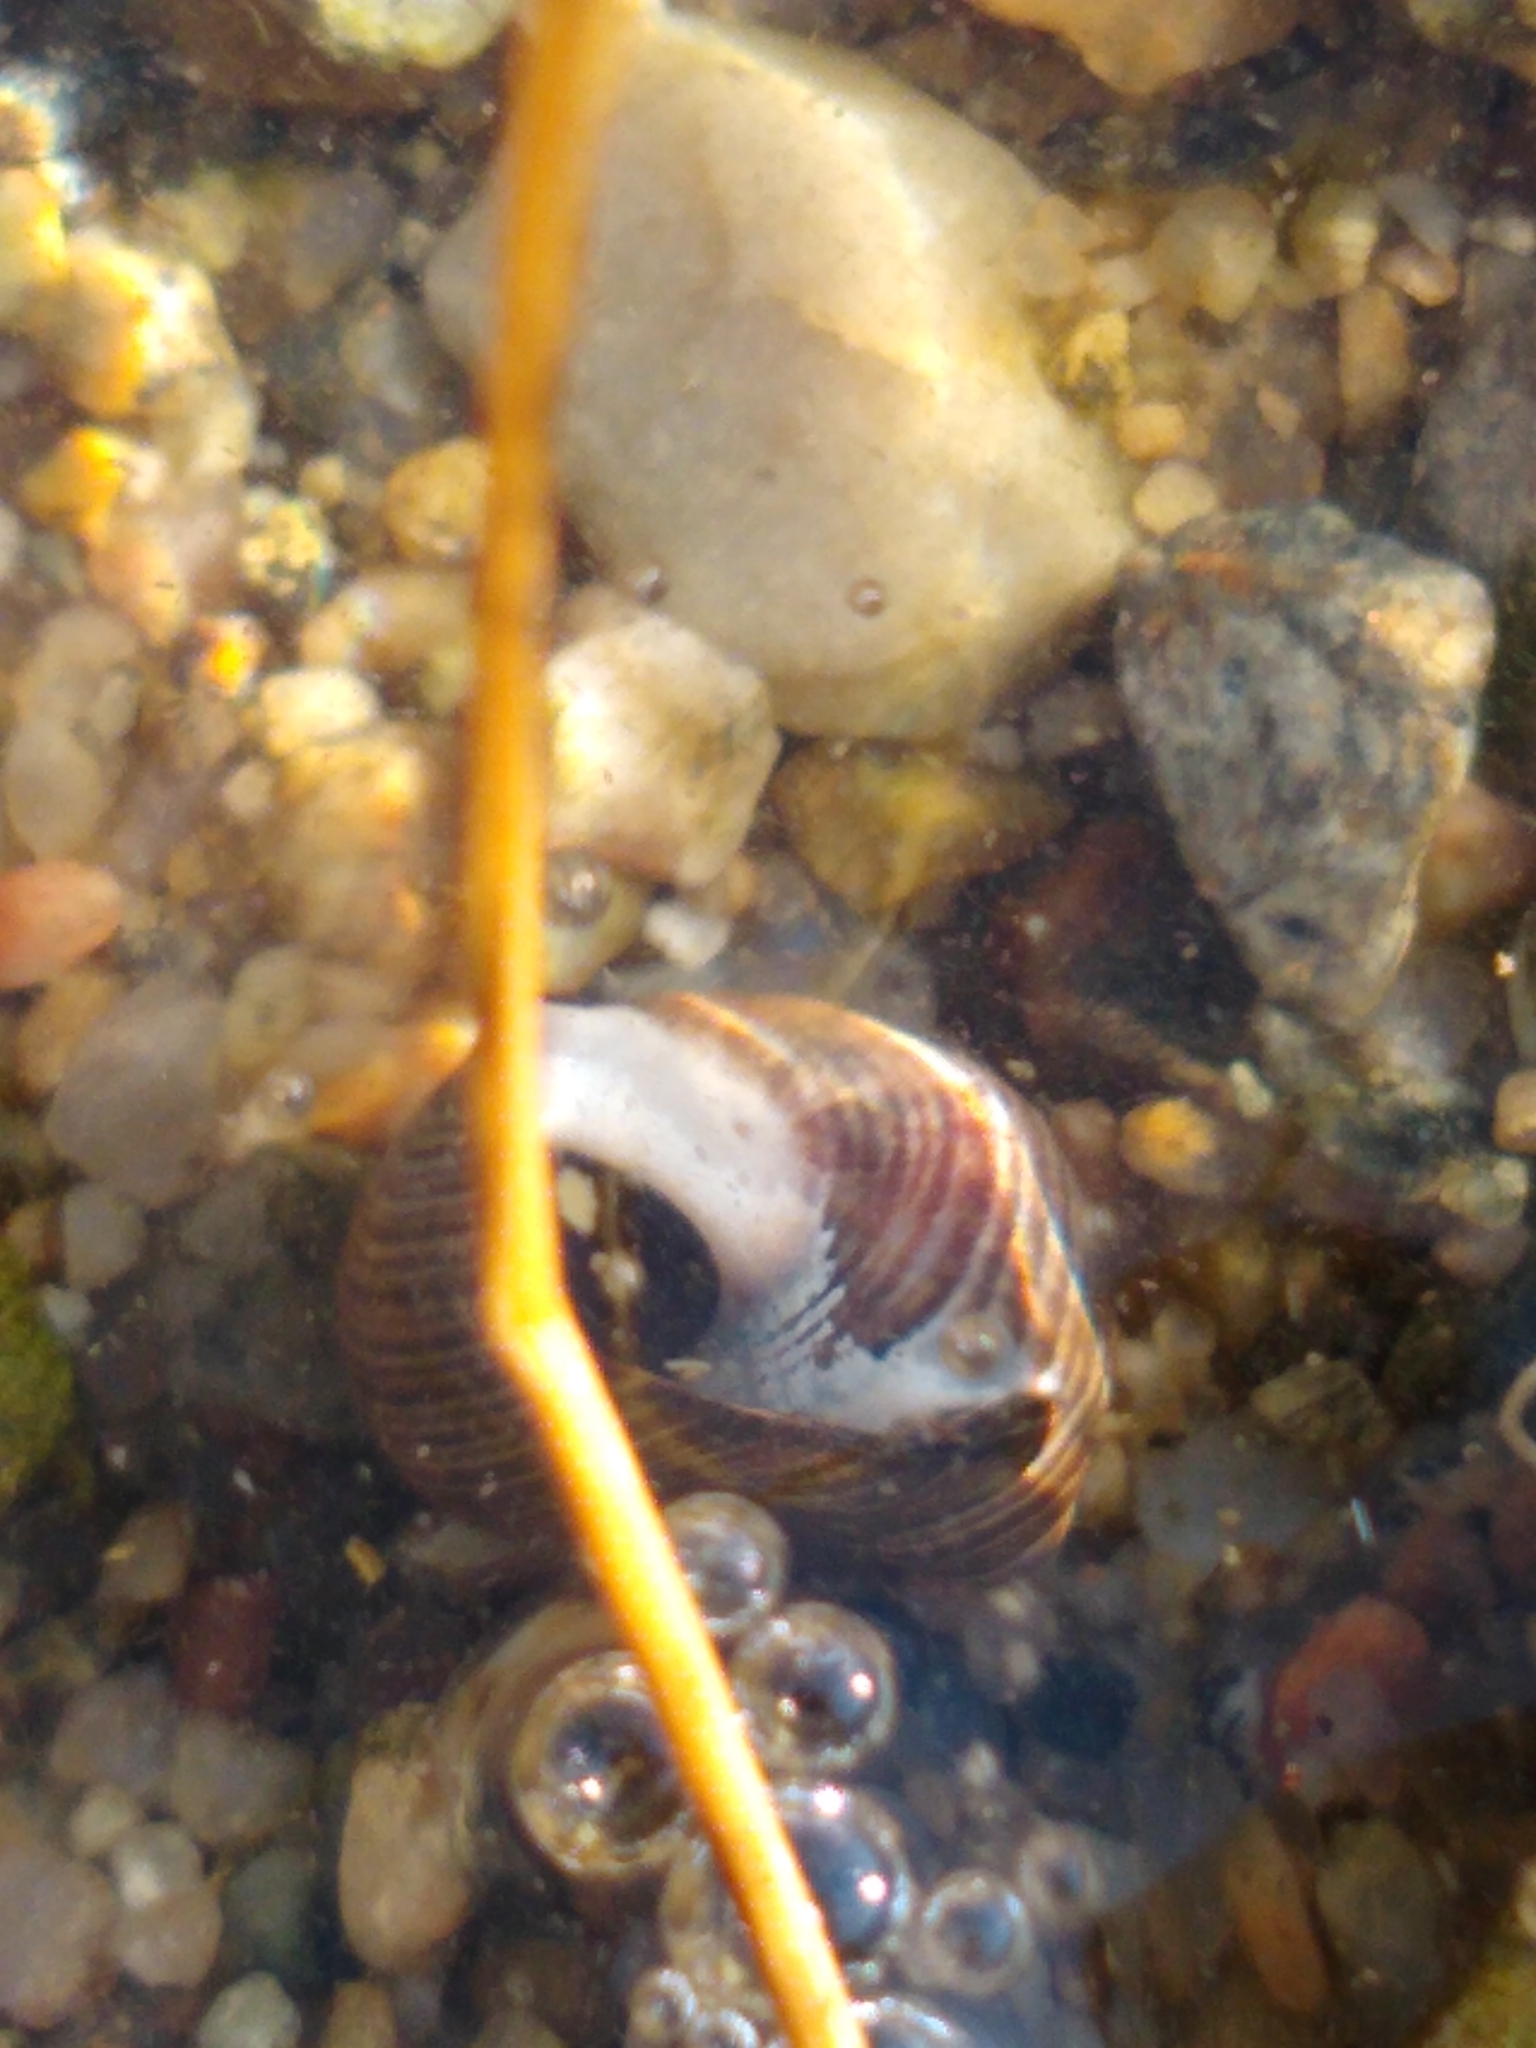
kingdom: Animalia
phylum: Mollusca
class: Gastropoda
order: Littorinimorpha
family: Littorinidae
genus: Littorina
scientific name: Littorina littorea
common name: Common periwinkle
